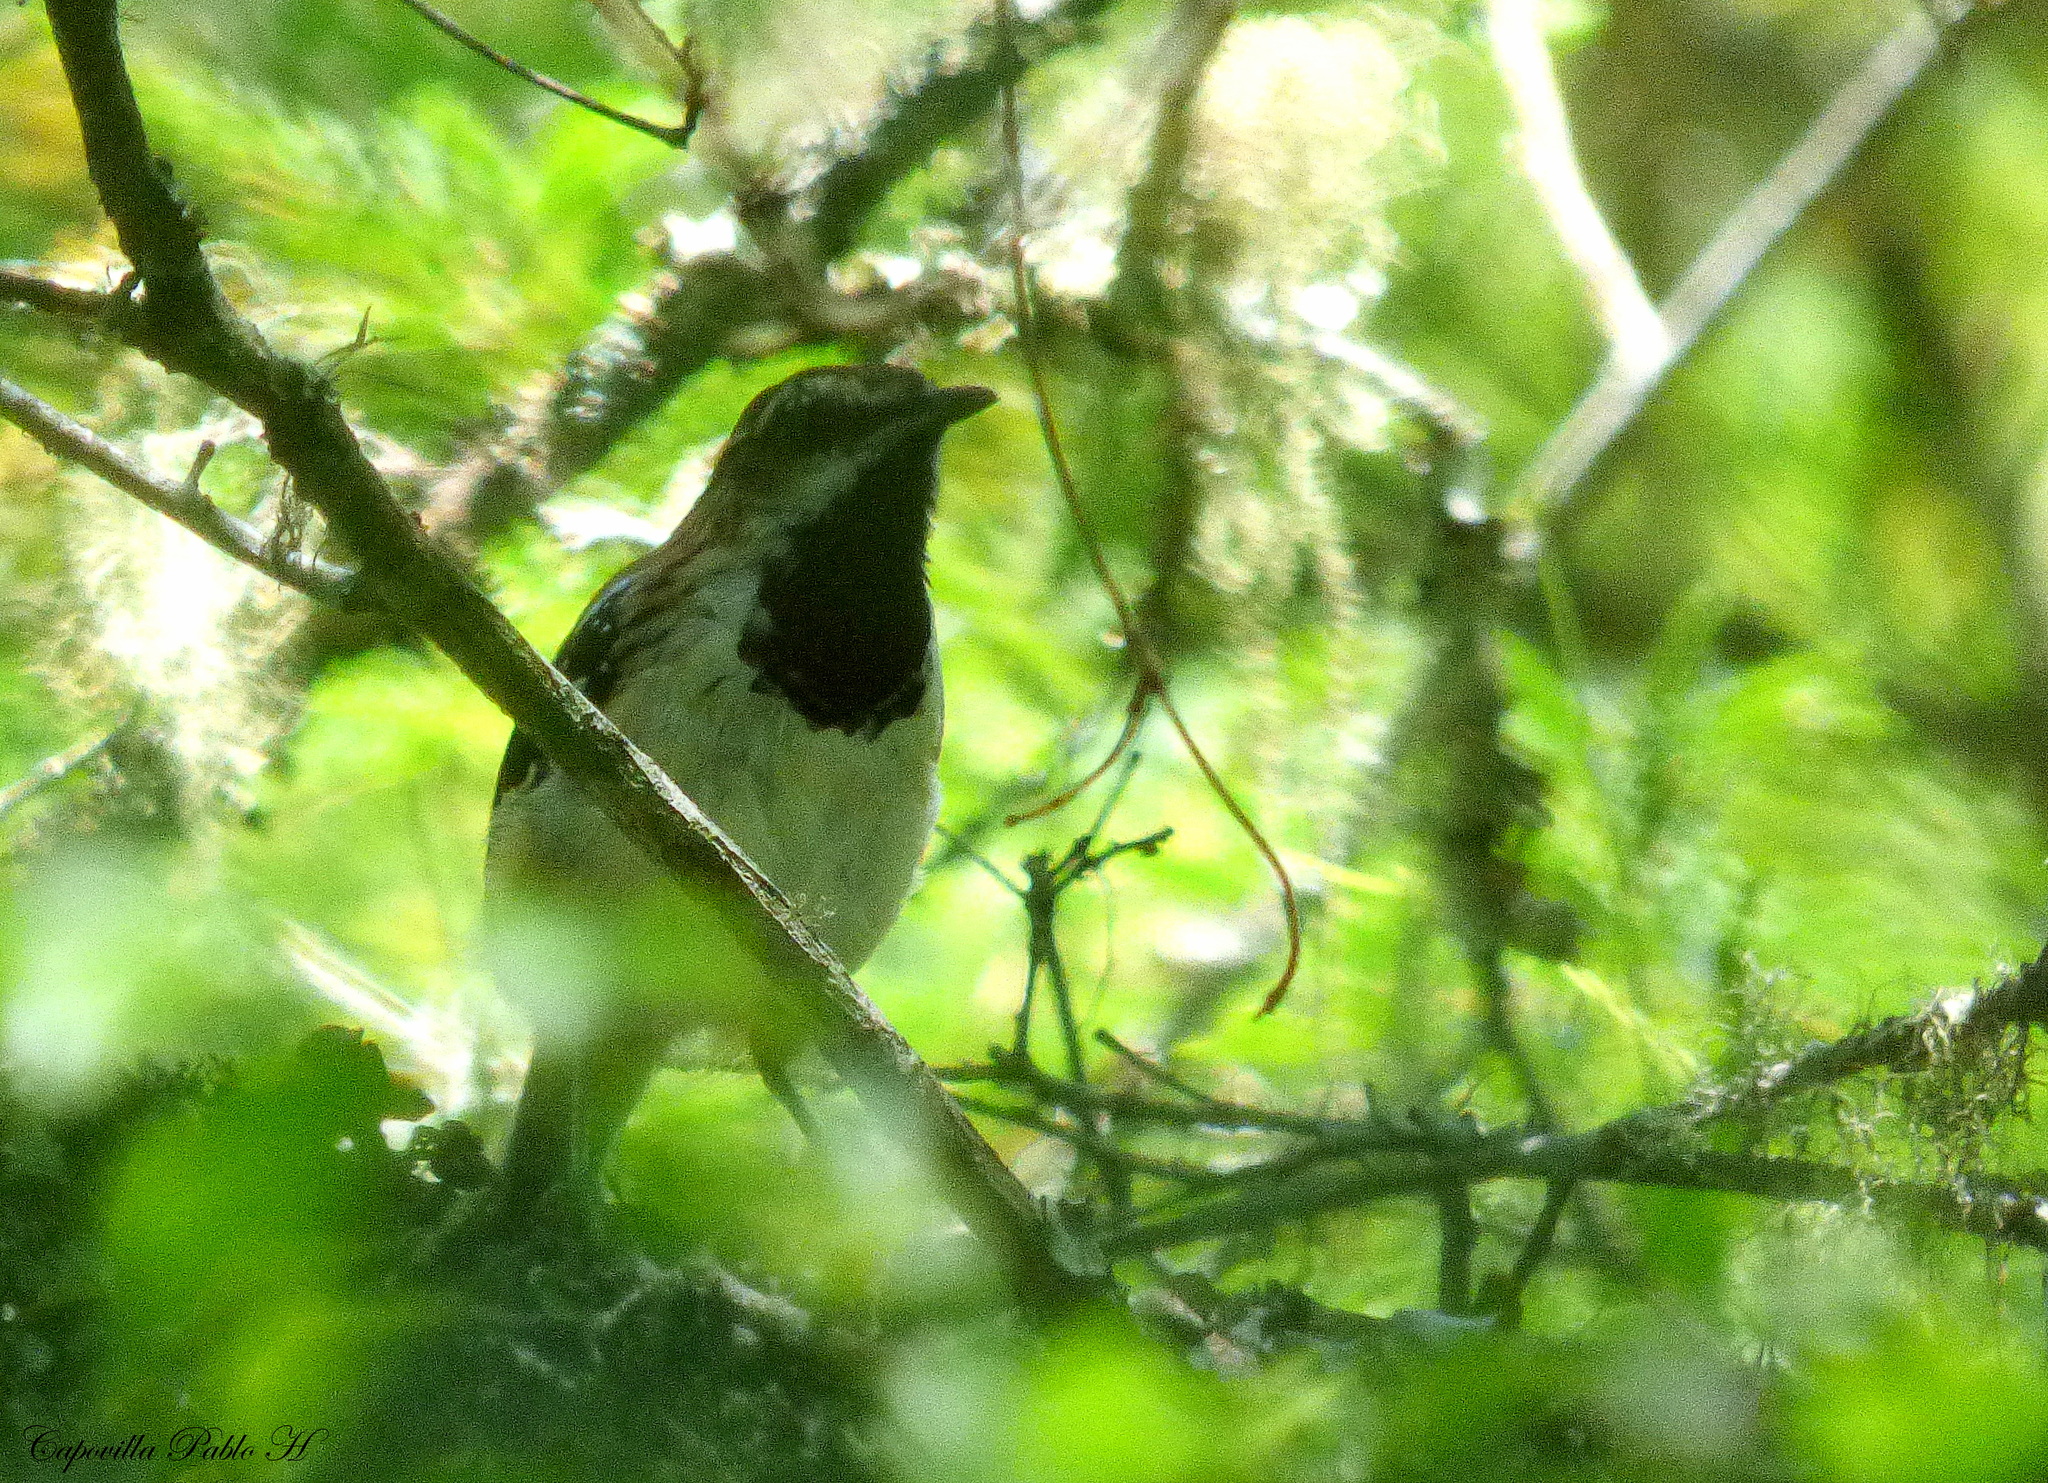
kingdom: Animalia
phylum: Chordata
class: Aves
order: Passeriformes
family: Thamnophilidae
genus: Myrmorchilus
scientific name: Myrmorchilus strigilatus
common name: Stripe-backed antbird
